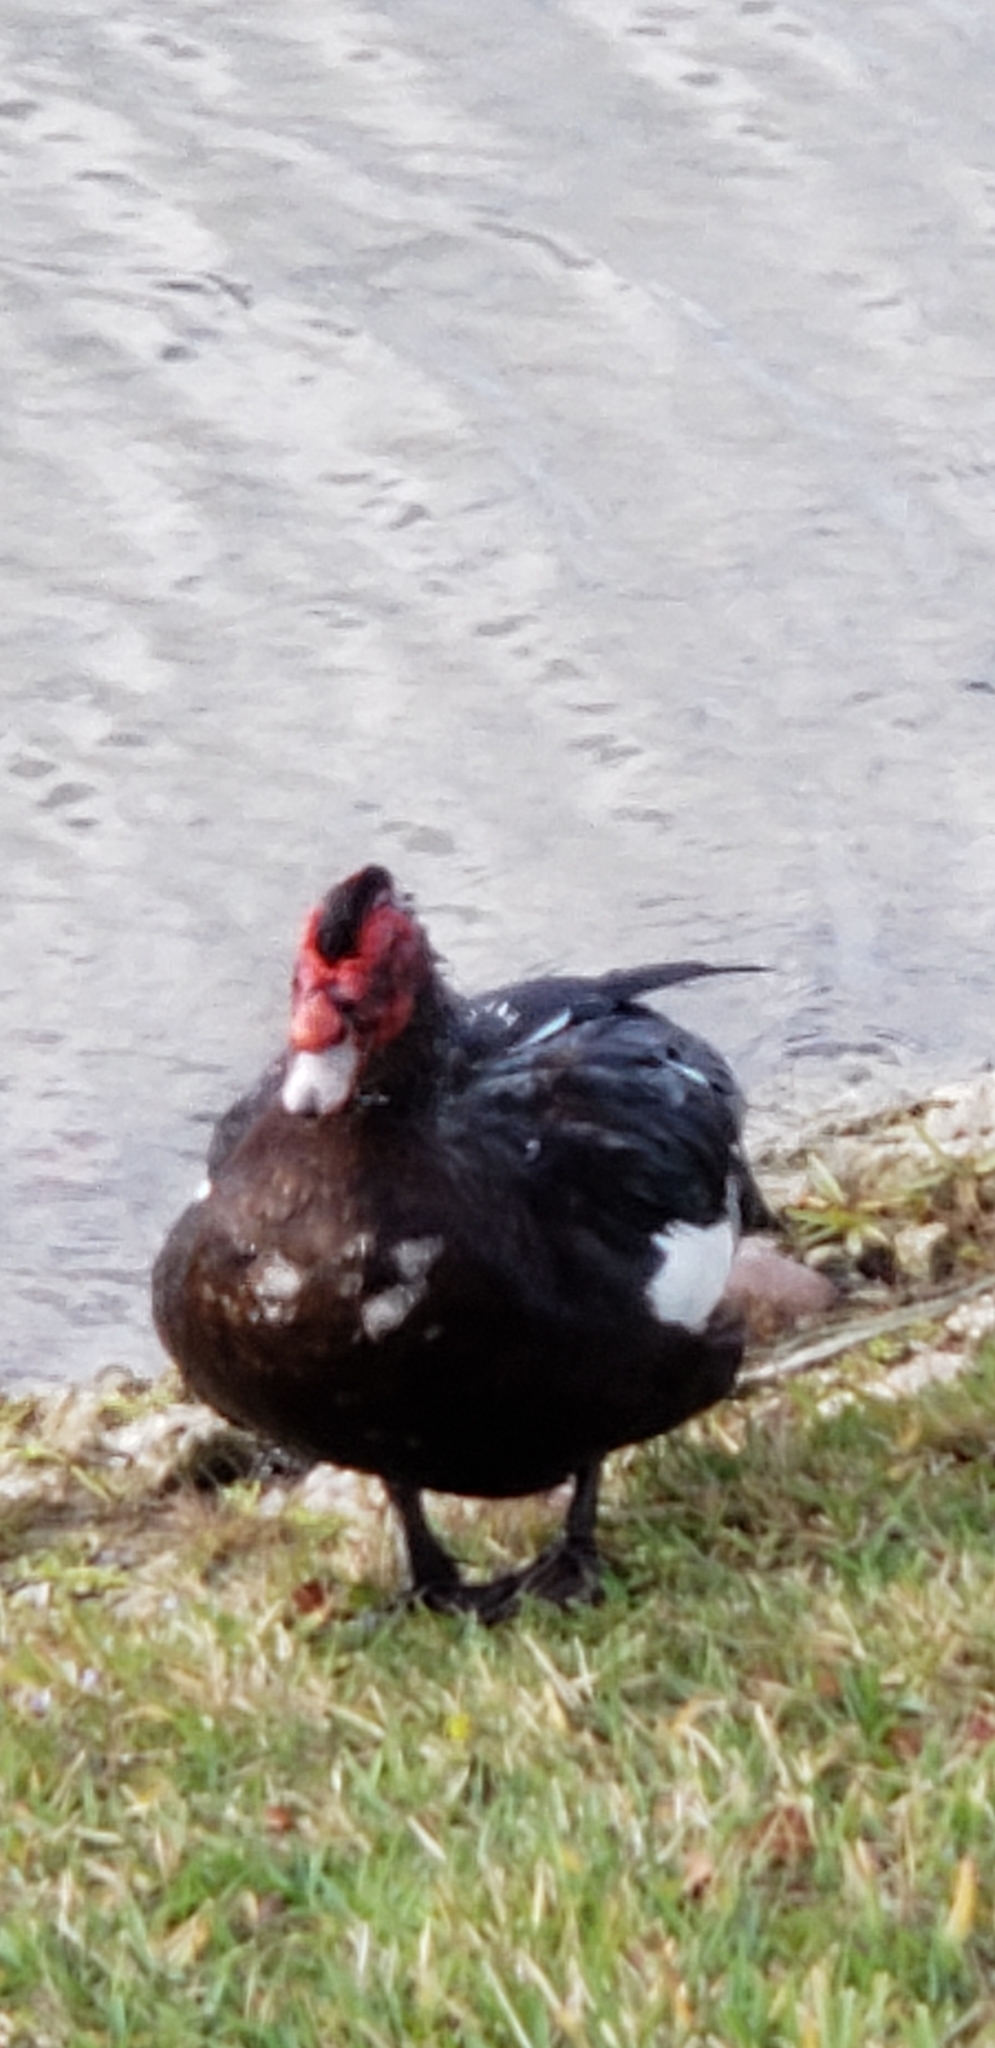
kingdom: Animalia
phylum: Chordata
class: Aves
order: Anseriformes
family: Anatidae
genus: Cairina
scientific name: Cairina moschata
